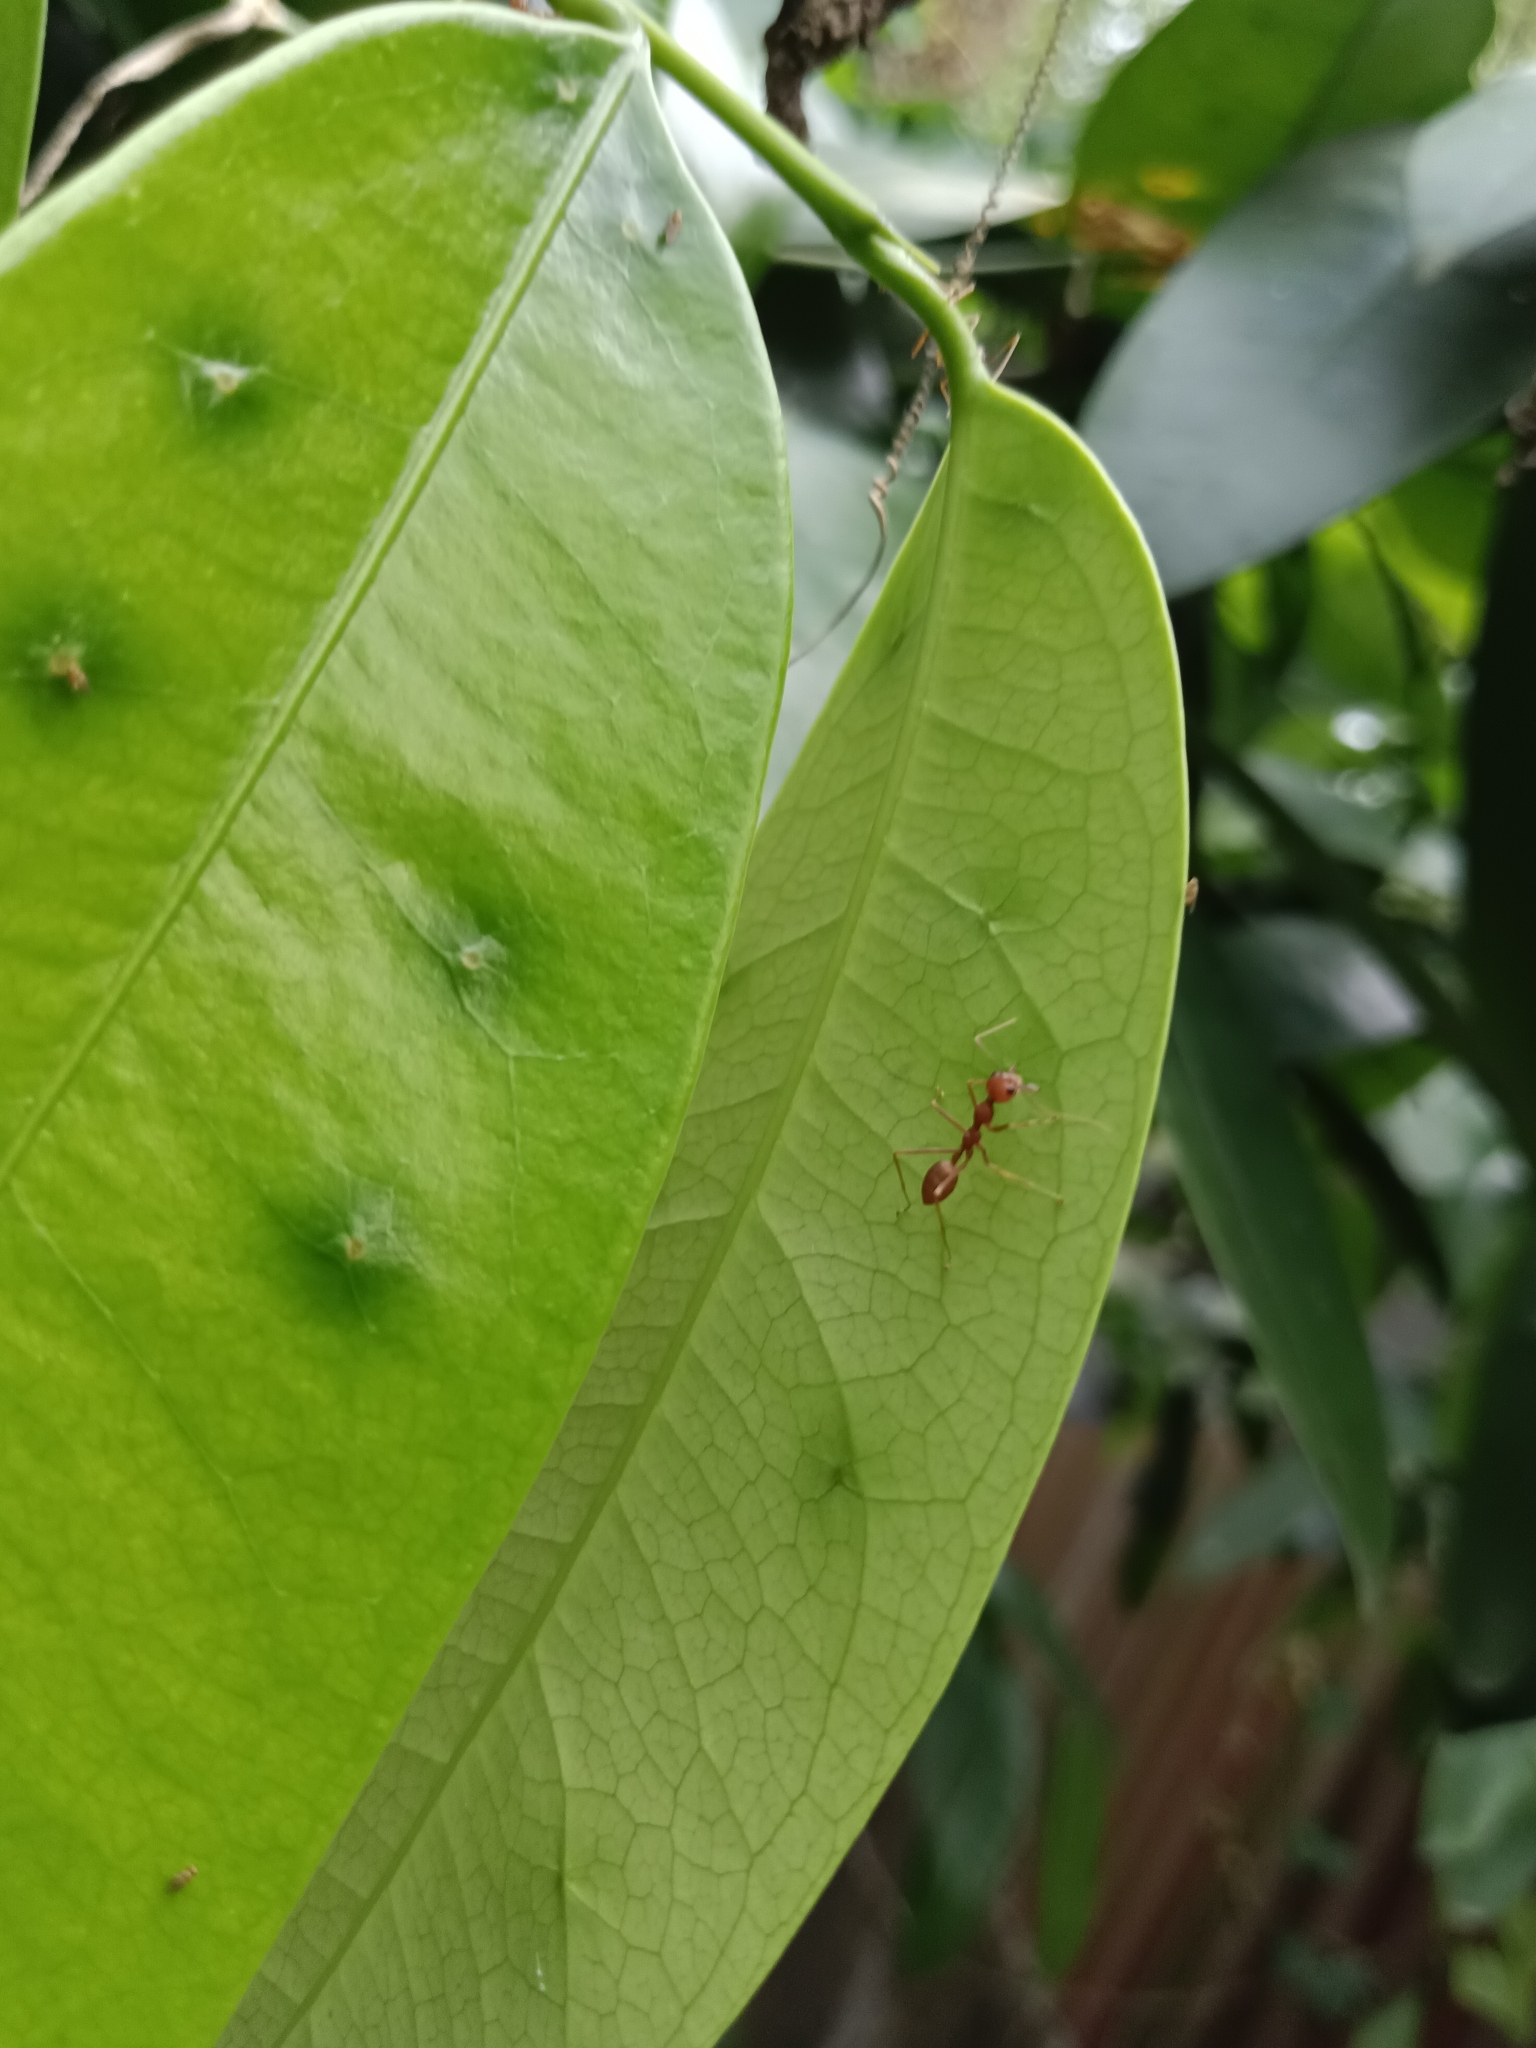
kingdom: Animalia
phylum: Arthropoda
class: Insecta
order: Hymenoptera
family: Formicidae
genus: Oecophylla
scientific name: Oecophylla smaragdina
